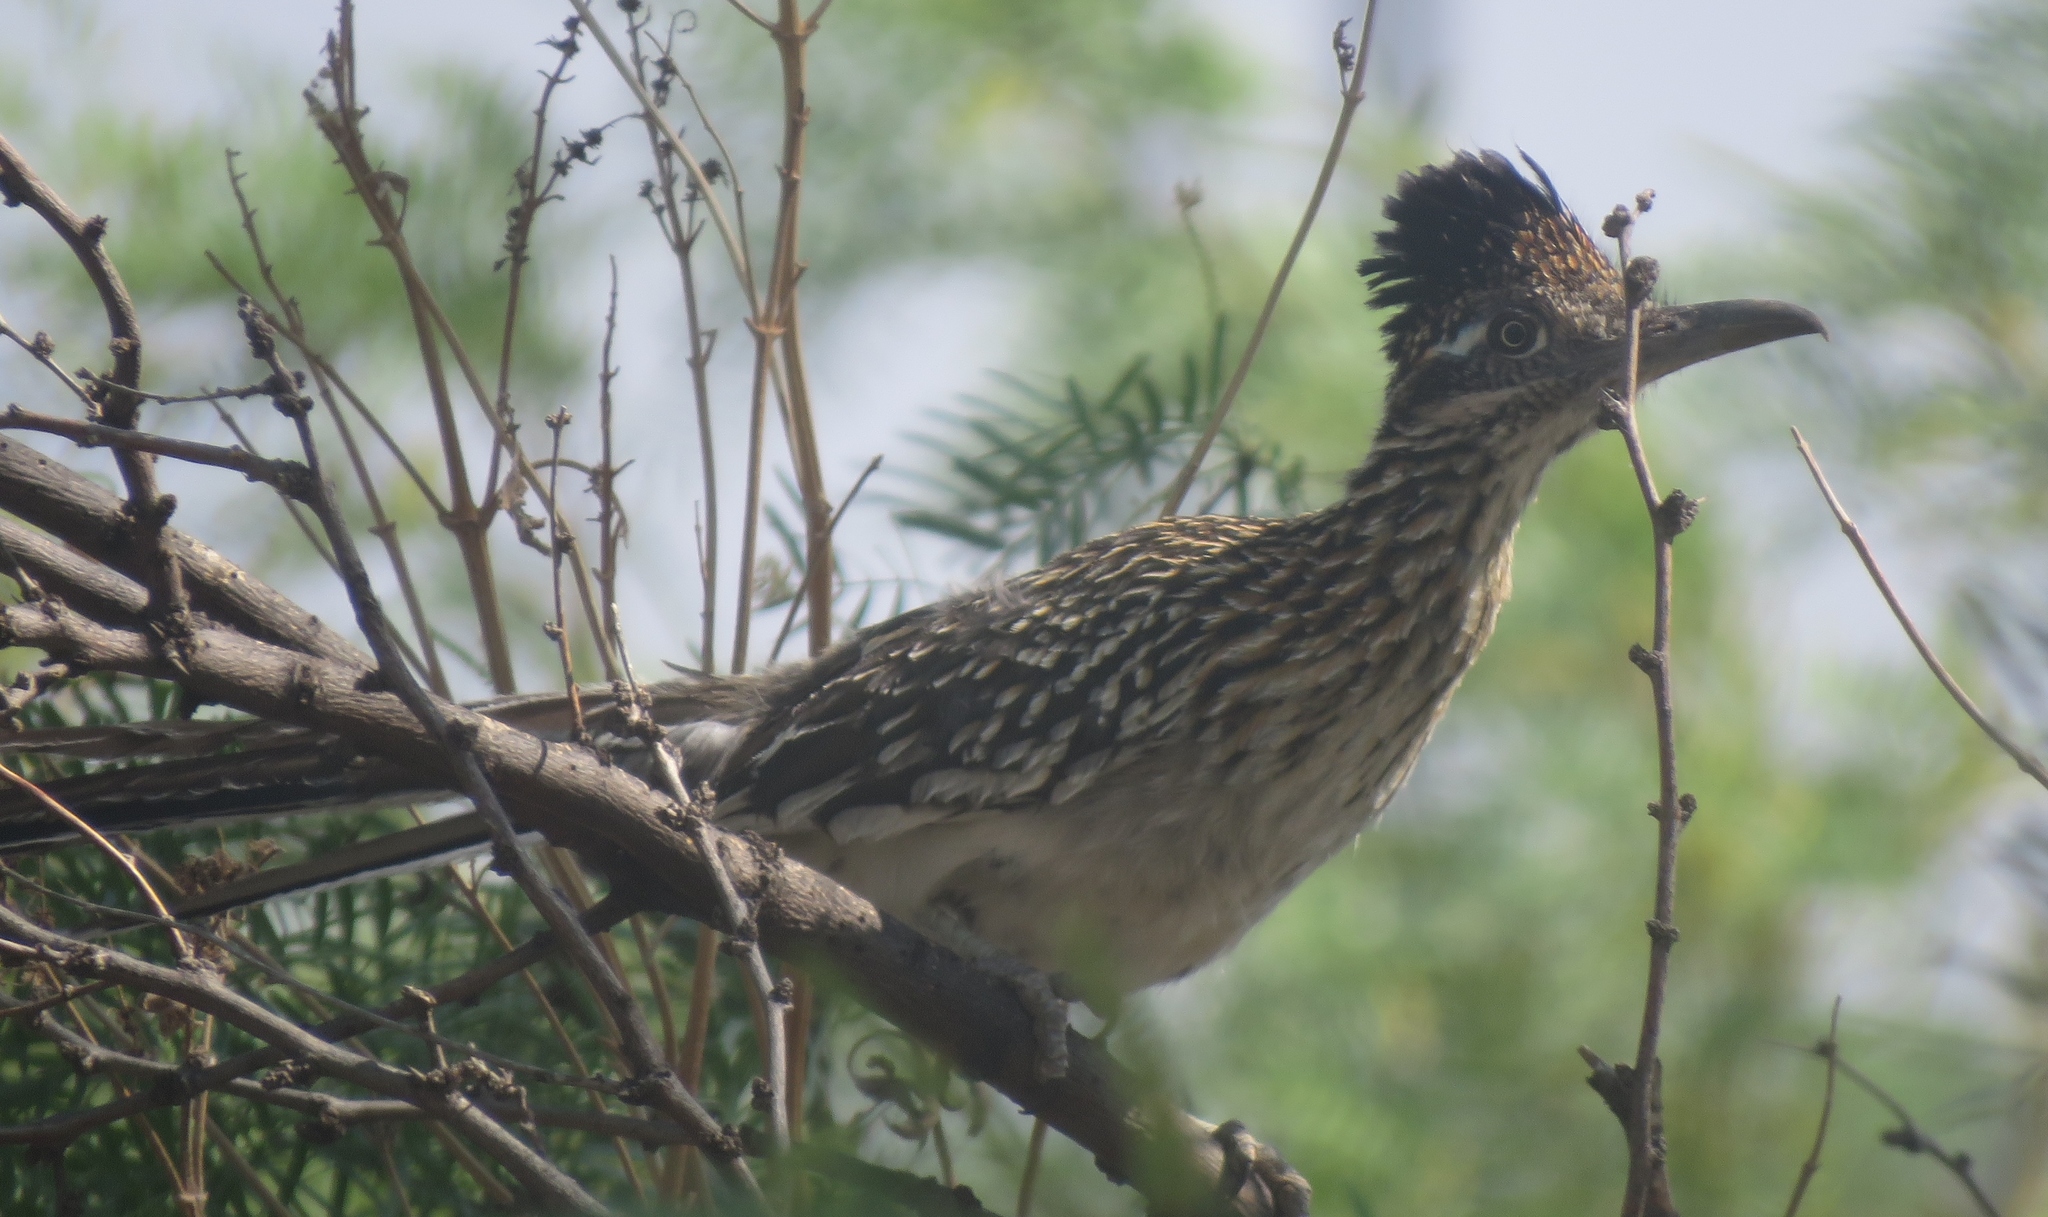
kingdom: Animalia
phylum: Chordata
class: Aves
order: Cuculiformes
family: Cuculidae
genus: Geococcyx
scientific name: Geococcyx californianus
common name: Greater roadrunner
